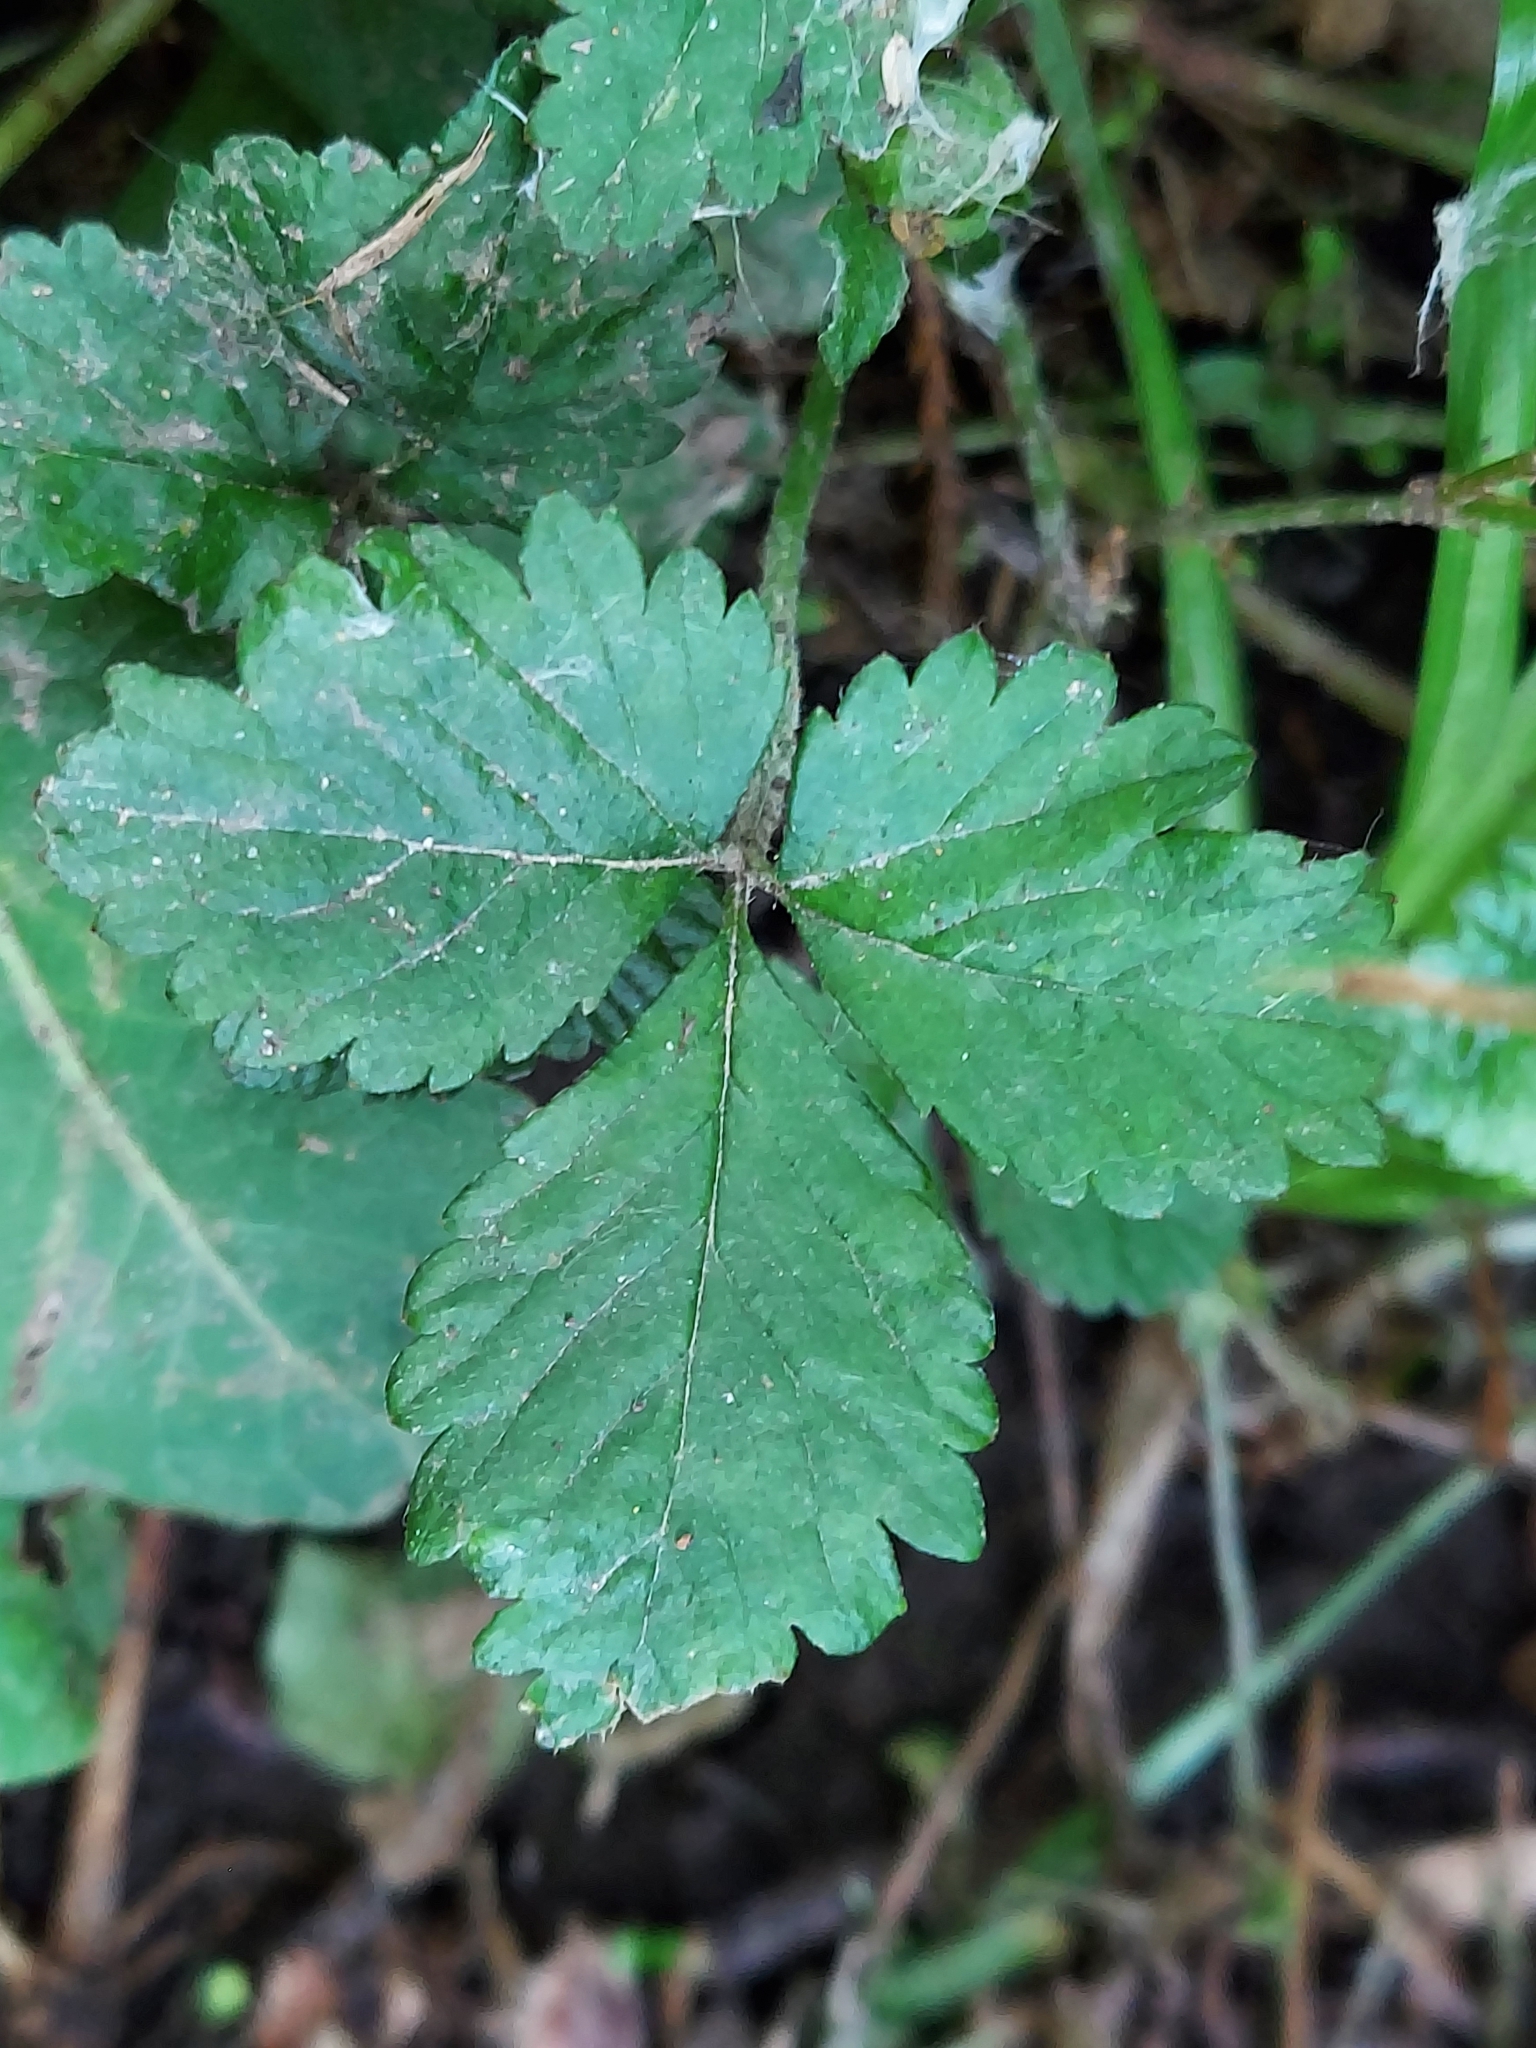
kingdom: Plantae
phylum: Tracheophyta
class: Magnoliopsida
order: Rosales
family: Rosaceae
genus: Potentilla
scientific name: Potentilla indica
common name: Yellow-flowered strawberry
